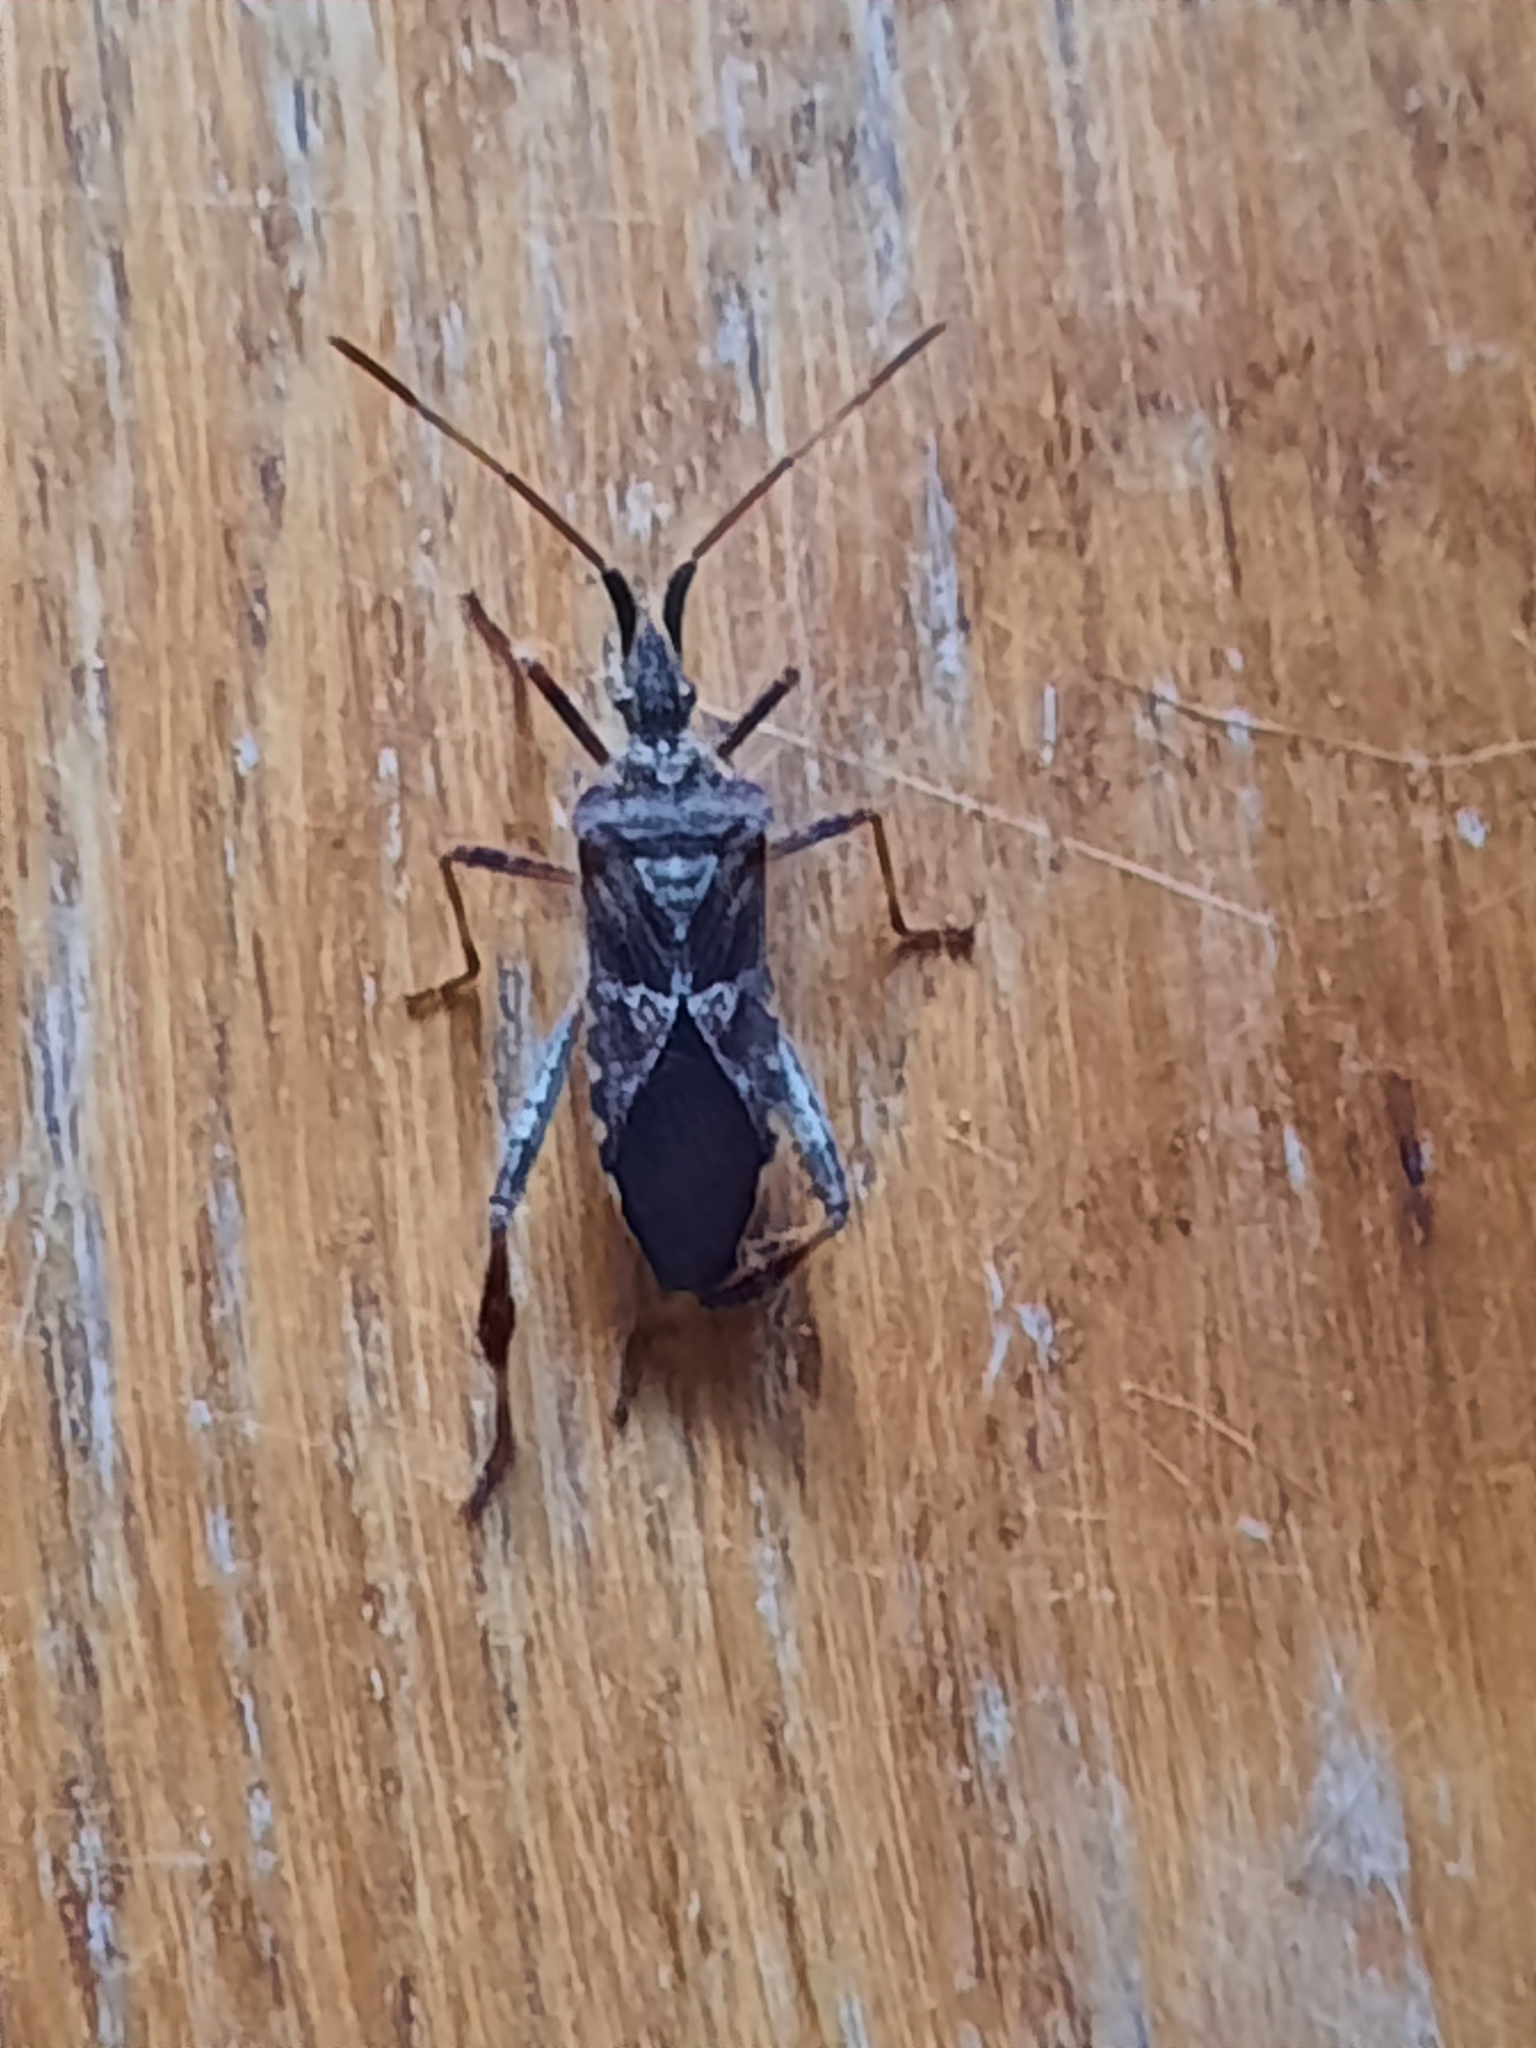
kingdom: Animalia
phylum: Arthropoda
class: Insecta
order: Hemiptera
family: Coreidae
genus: Leptoglossus
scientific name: Leptoglossus occidentalis
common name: Western conifer-seed bug
